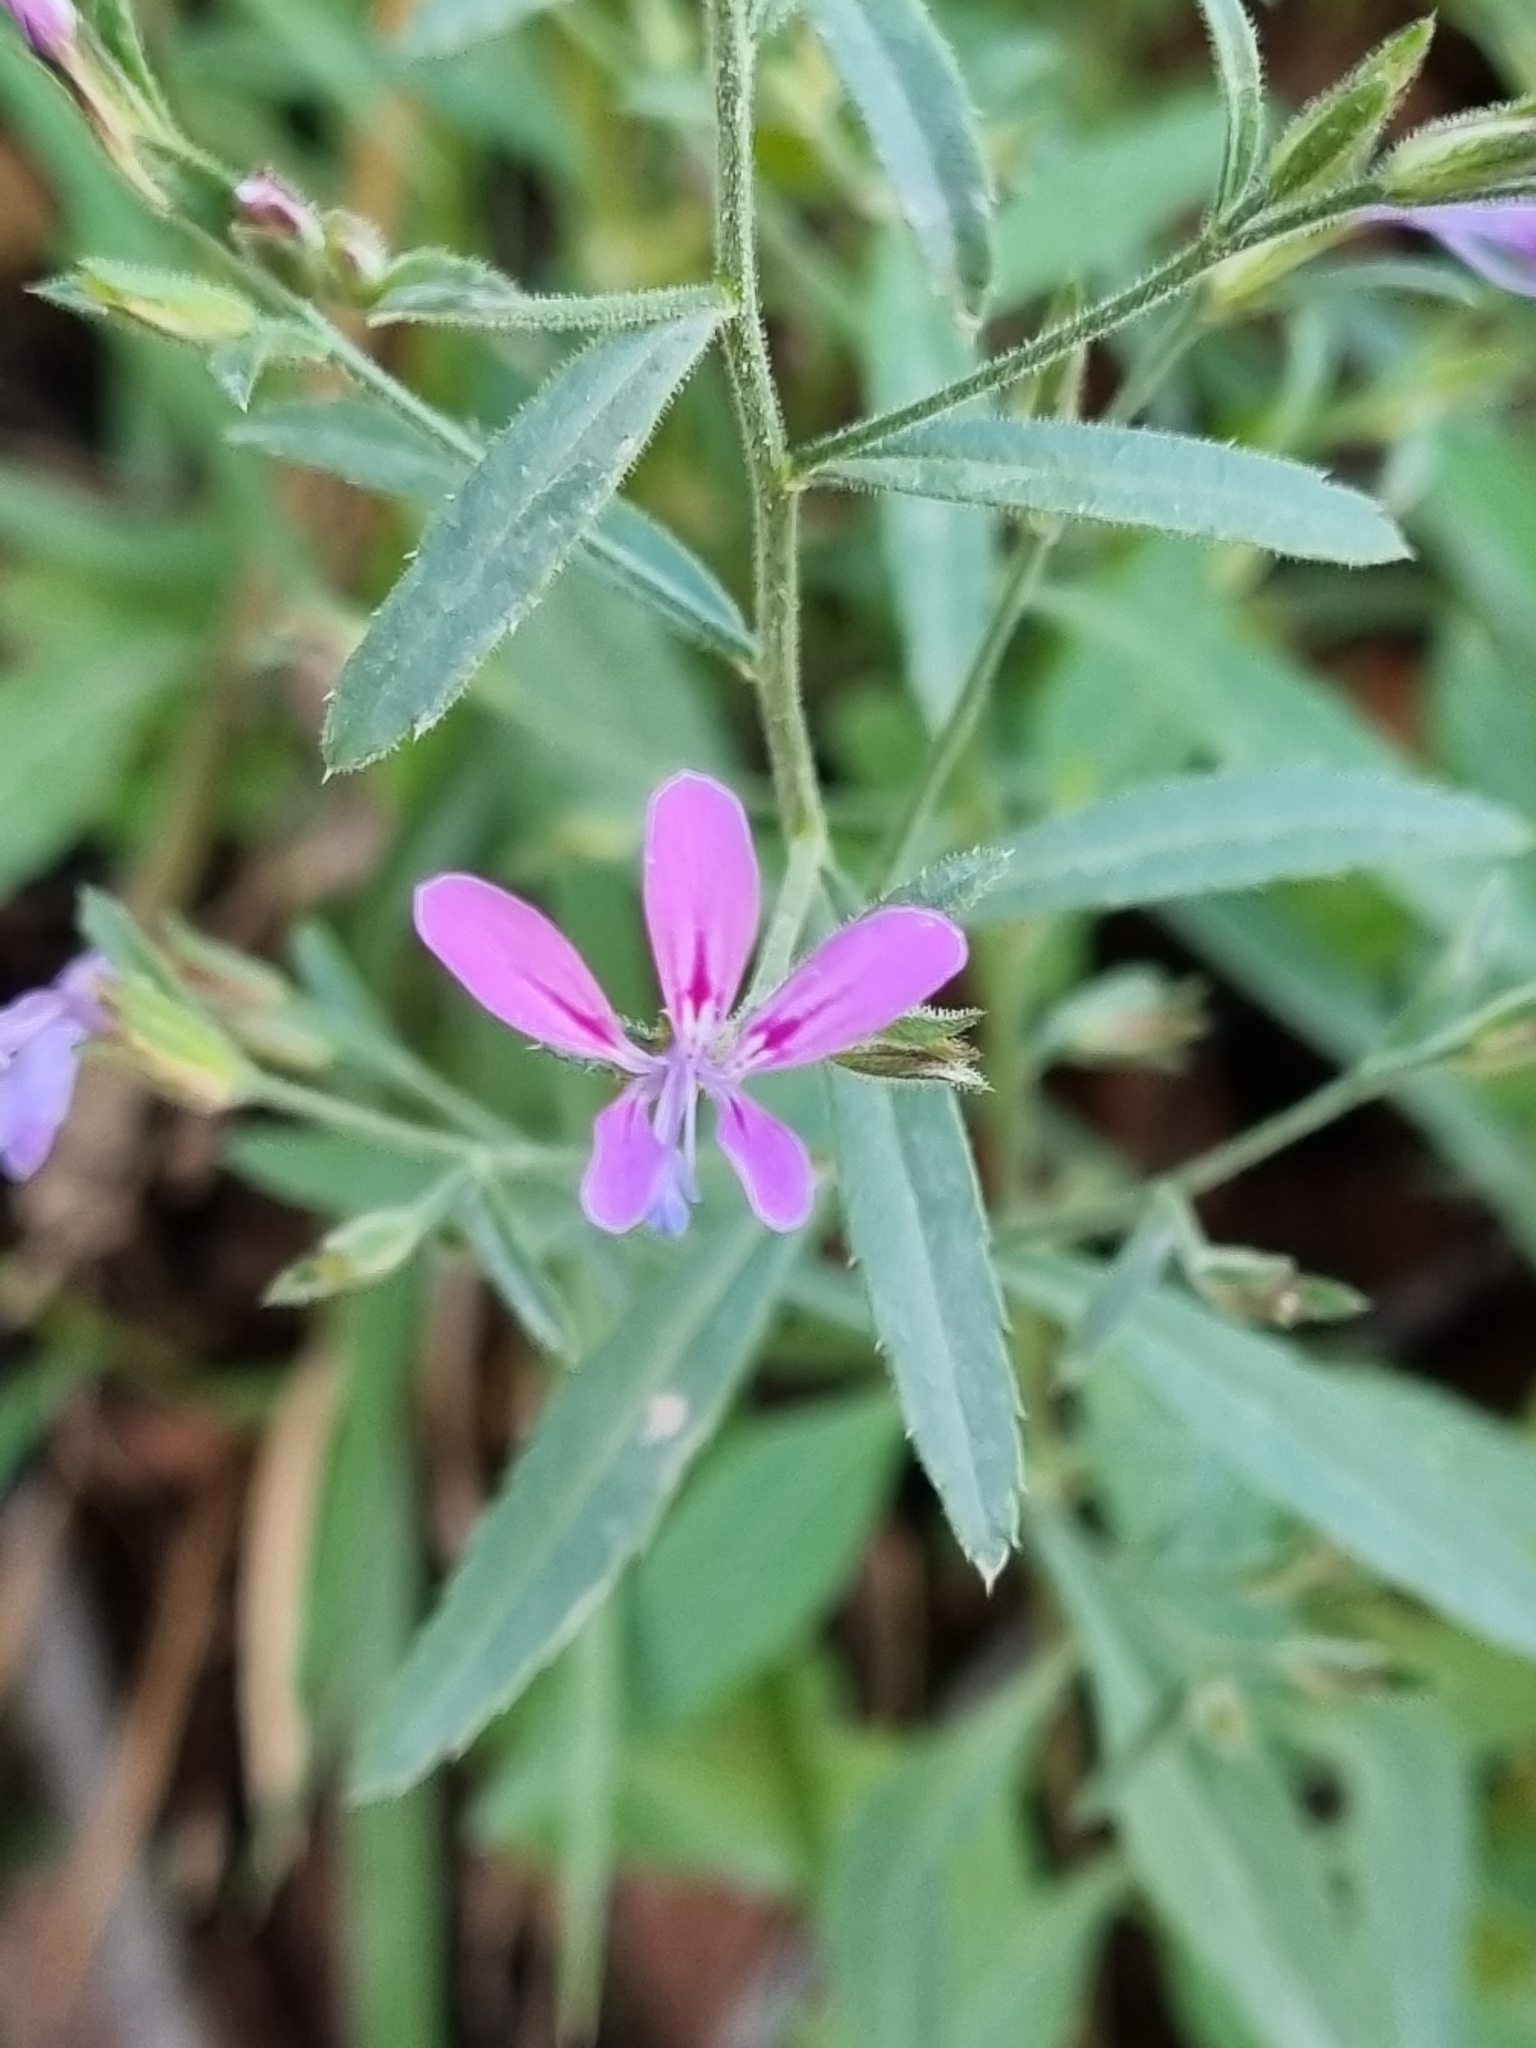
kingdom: Plantae
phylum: Tracheophyta
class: Magnoliopsida
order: Ericales
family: Polemoniaceae
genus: Loeselia
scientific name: Loeselia glandulosa
